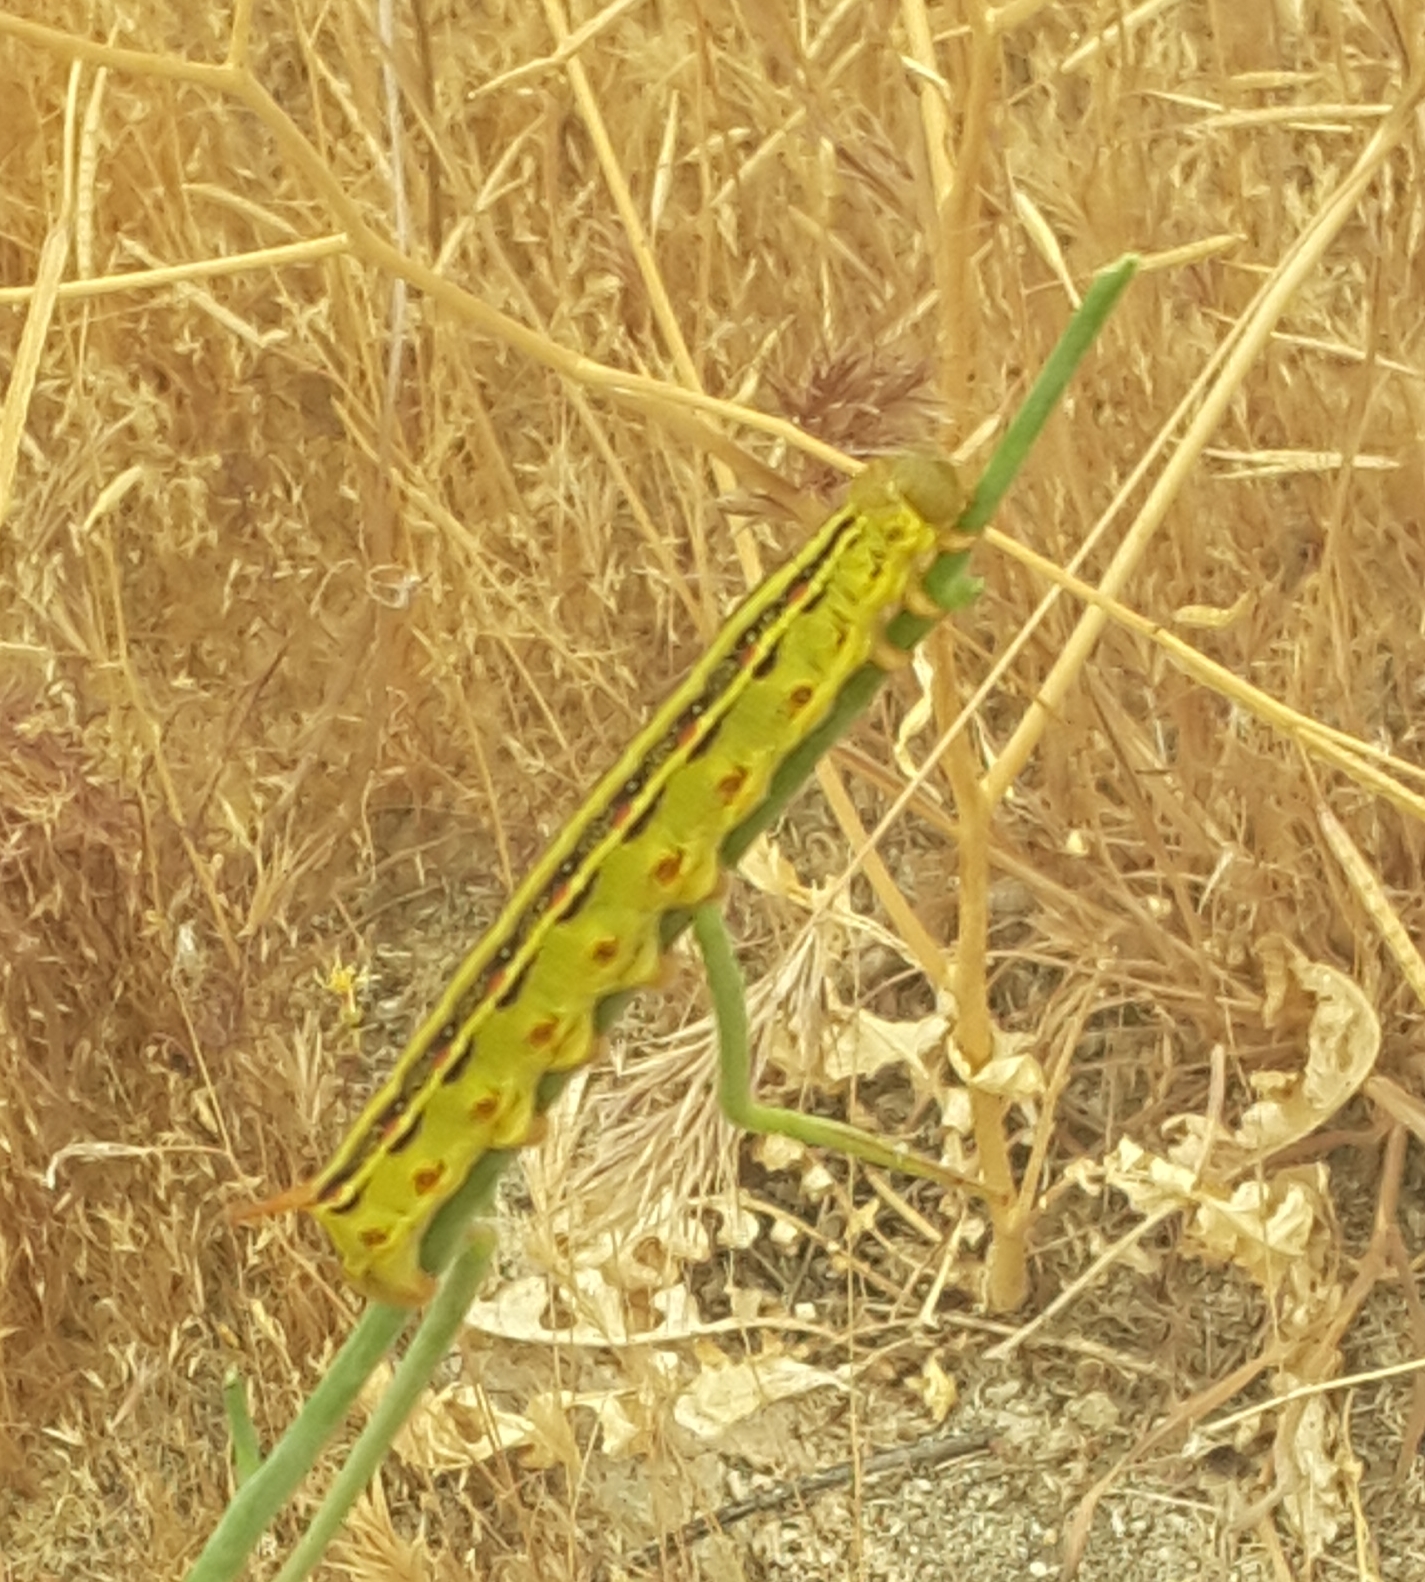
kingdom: Animalia
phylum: Arthropoda
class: Insecta
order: Lepidoptera
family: Sphingidae
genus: Hyles
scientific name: Hyles lineata
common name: White-lined sphinx
